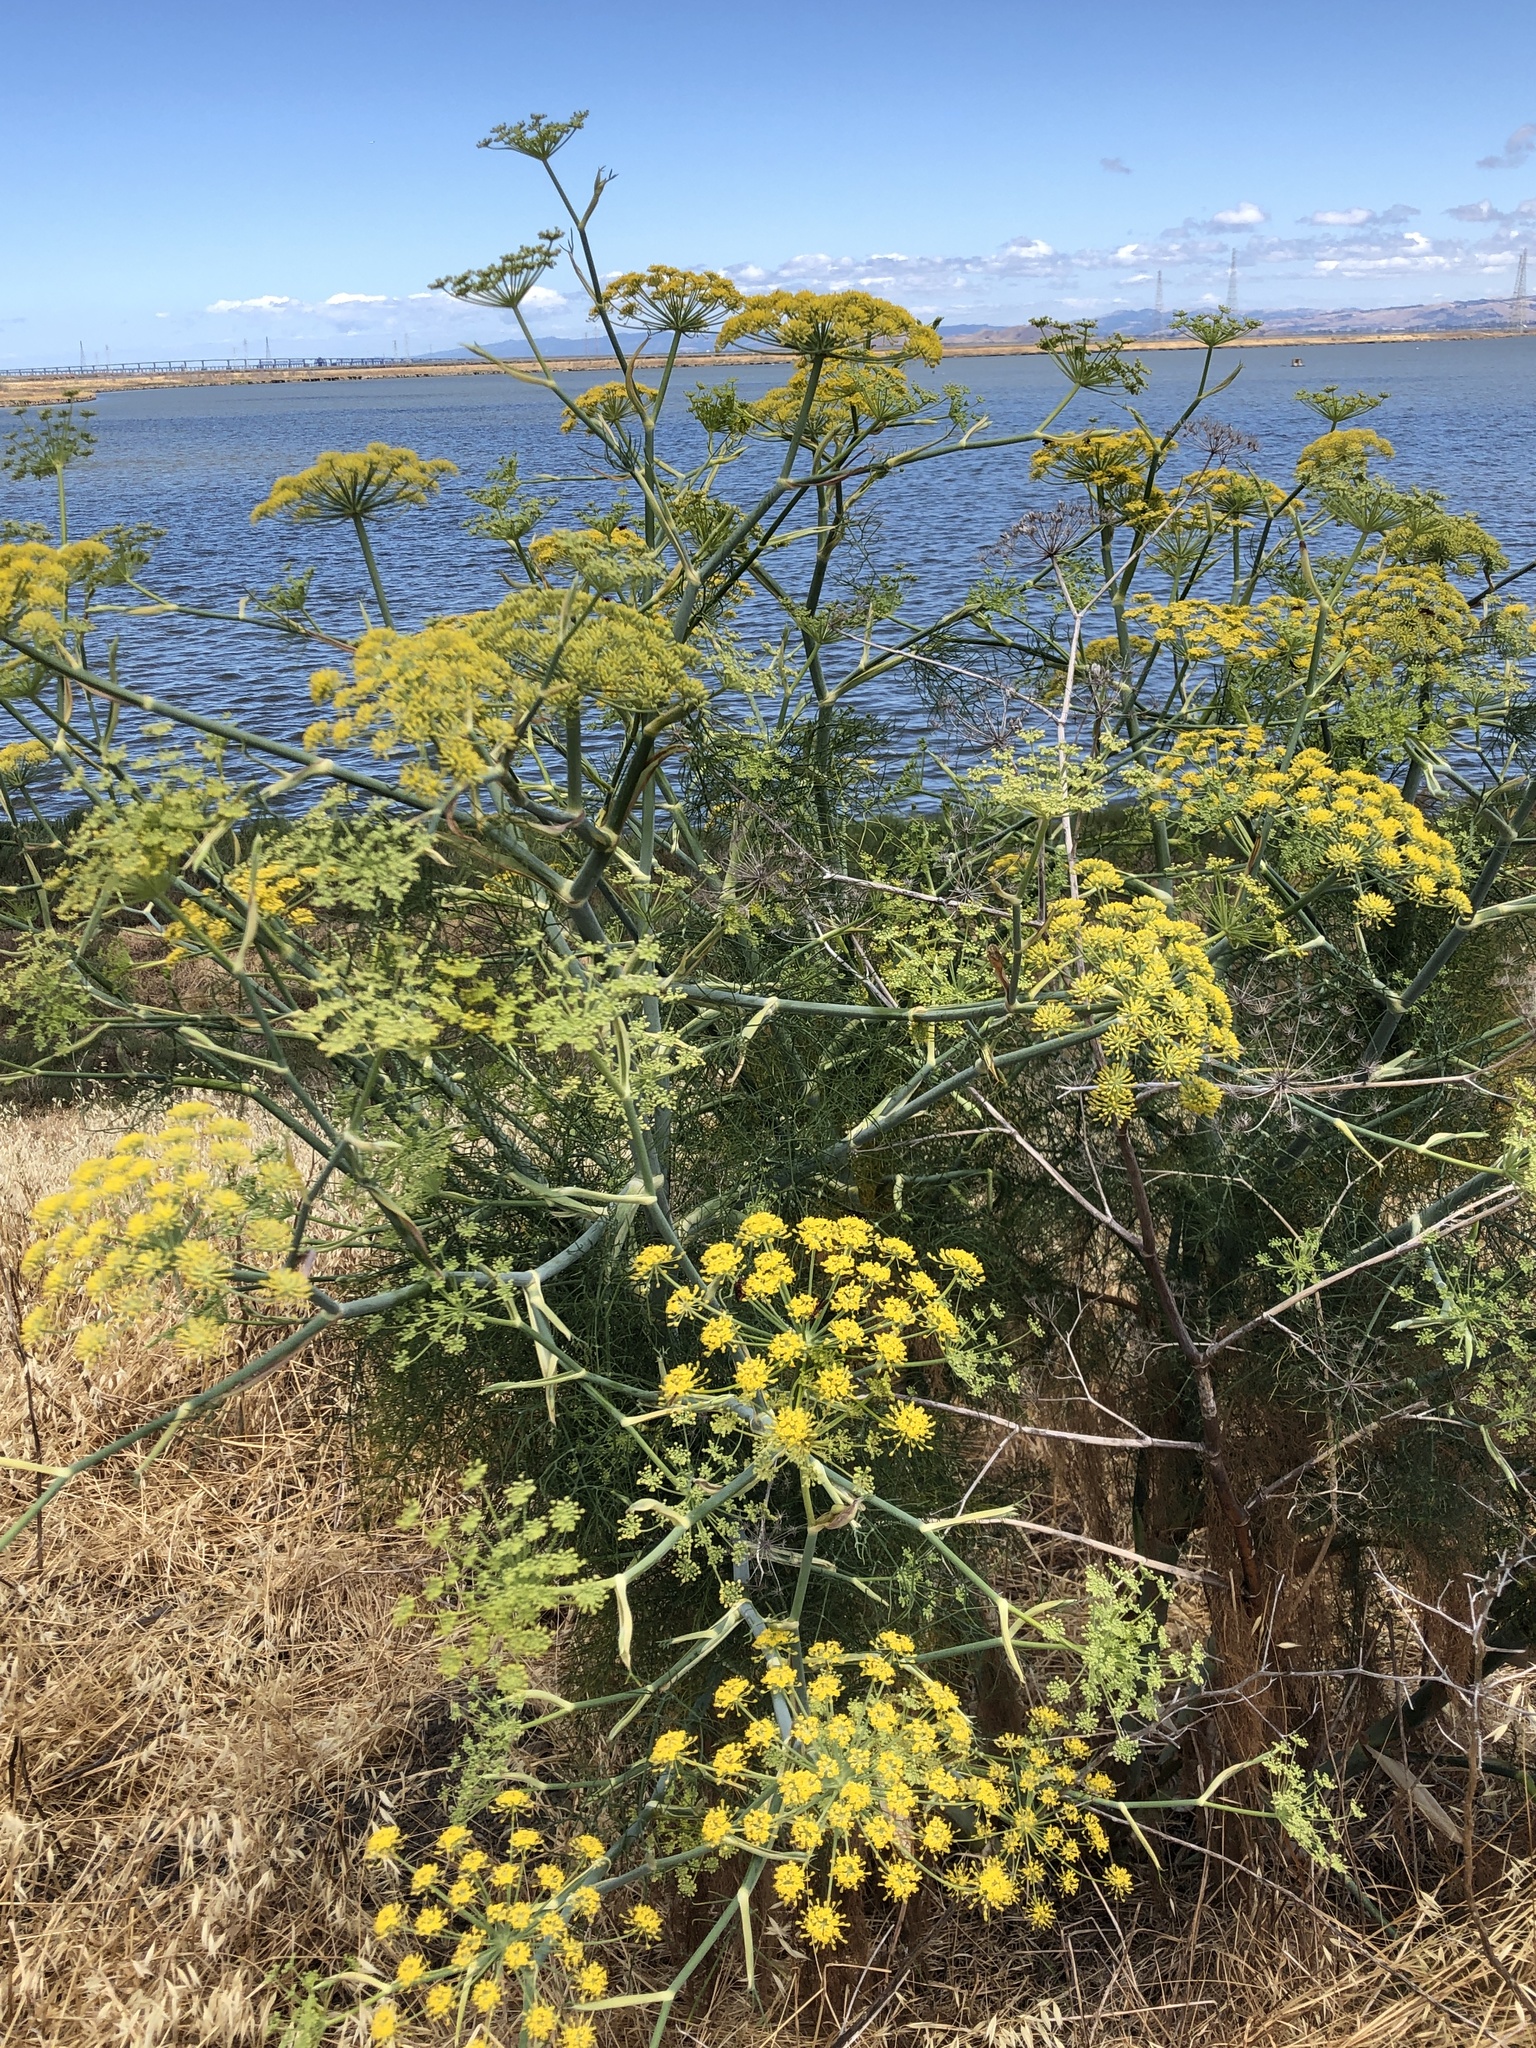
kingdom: Plantae
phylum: Tracheophyta
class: Magnoliopsida
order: Apiales
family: Apiaceae
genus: Foeniculum
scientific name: Foeniculum vulgare
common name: Fennel
